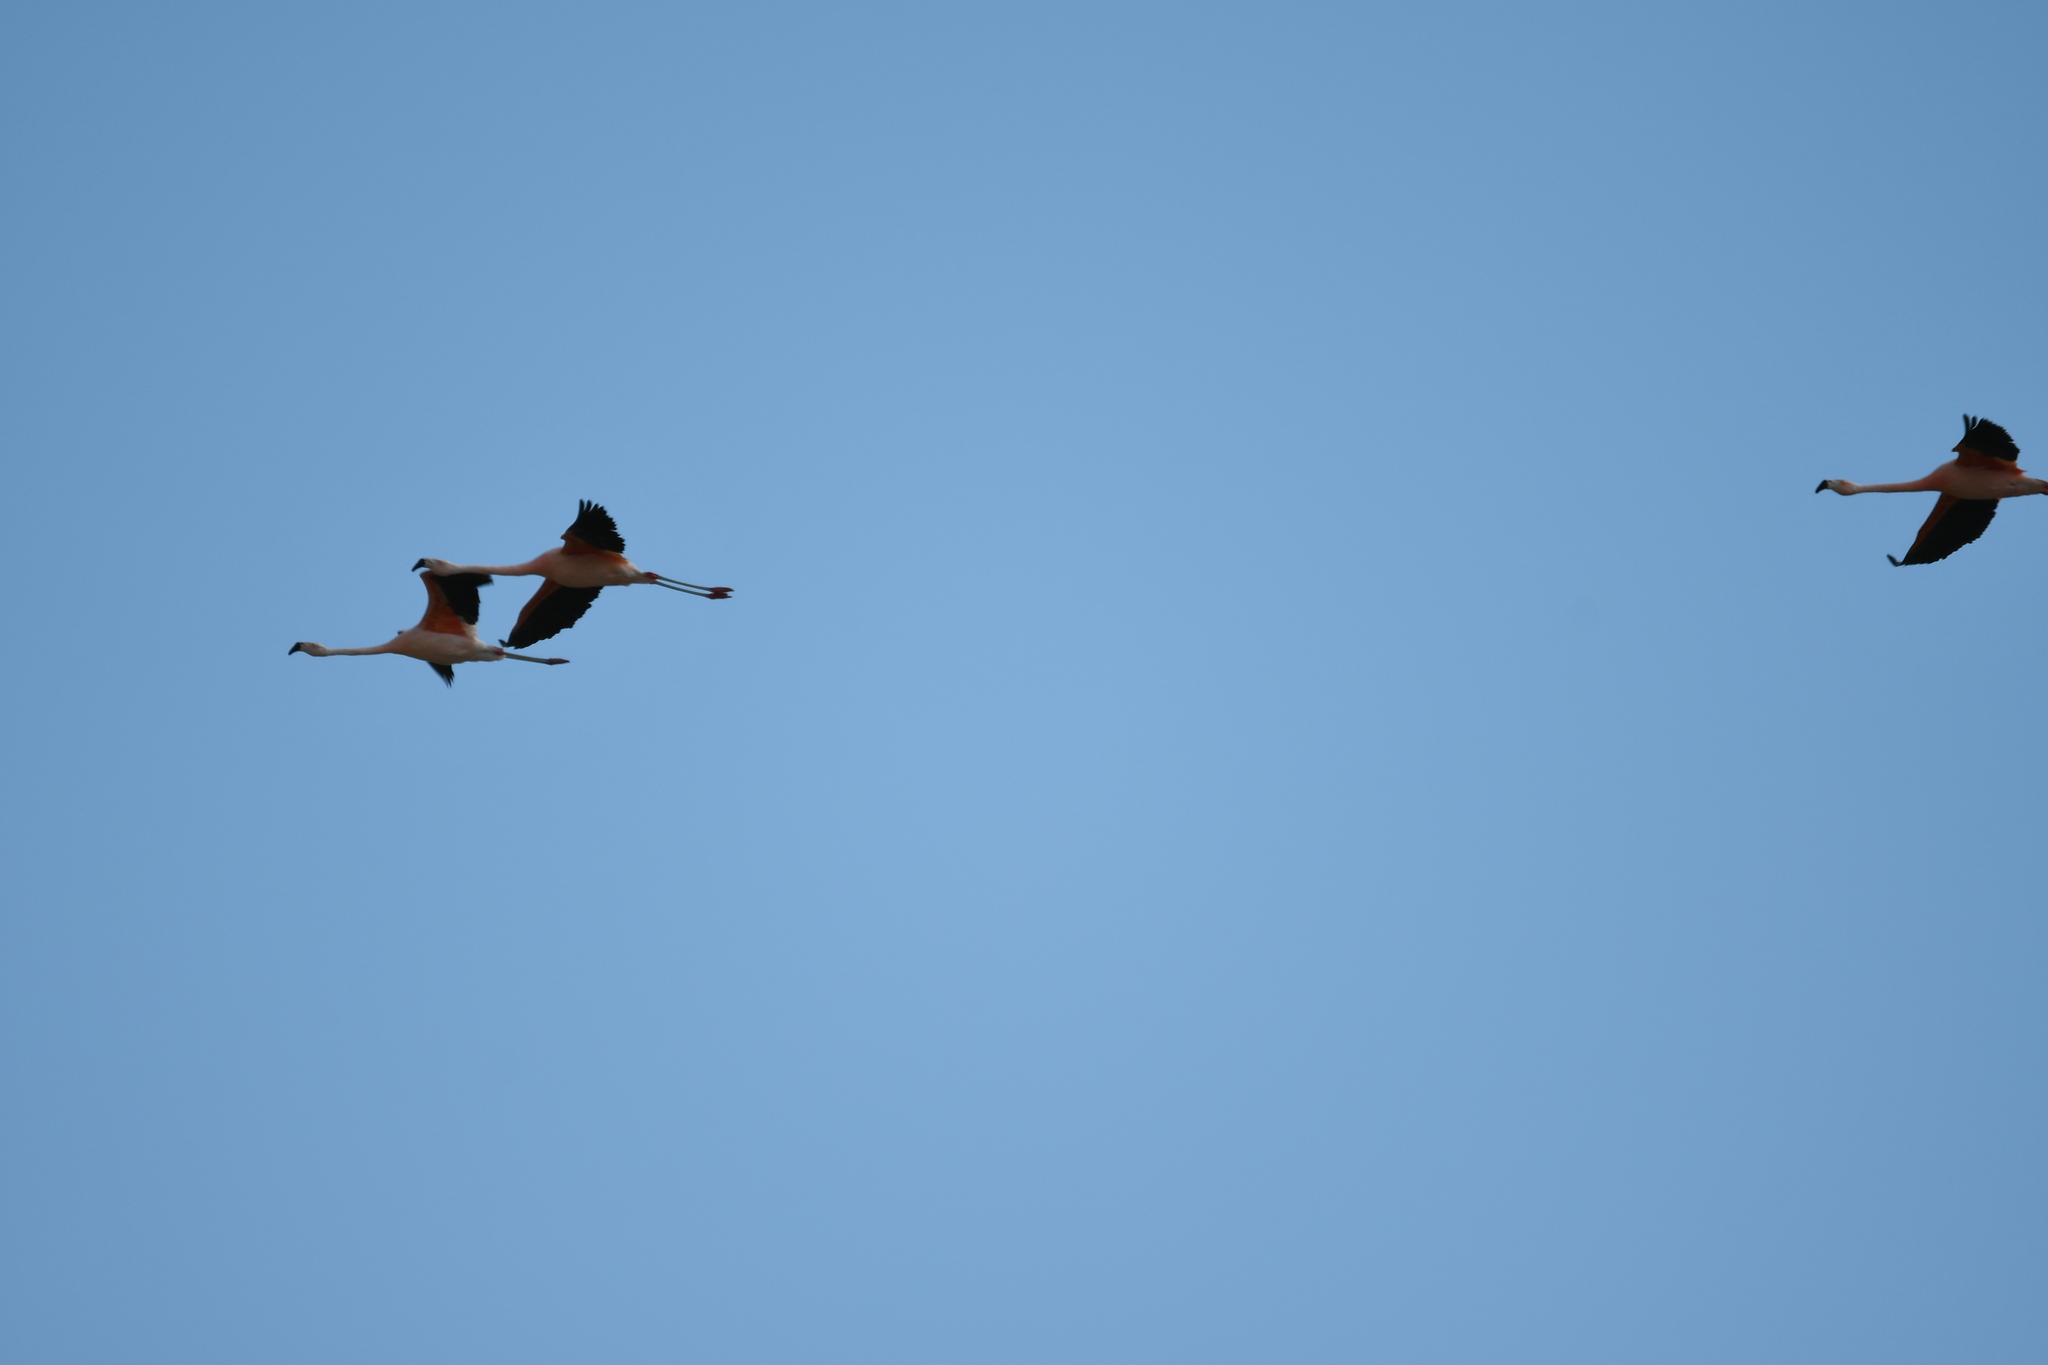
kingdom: Animalia
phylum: Chordata
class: Aves
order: Phoenicopteriformes
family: Phoenicopteridae
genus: Phoenicopterus
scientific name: Phoenicopterus chilensis
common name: Chilean flamingo
